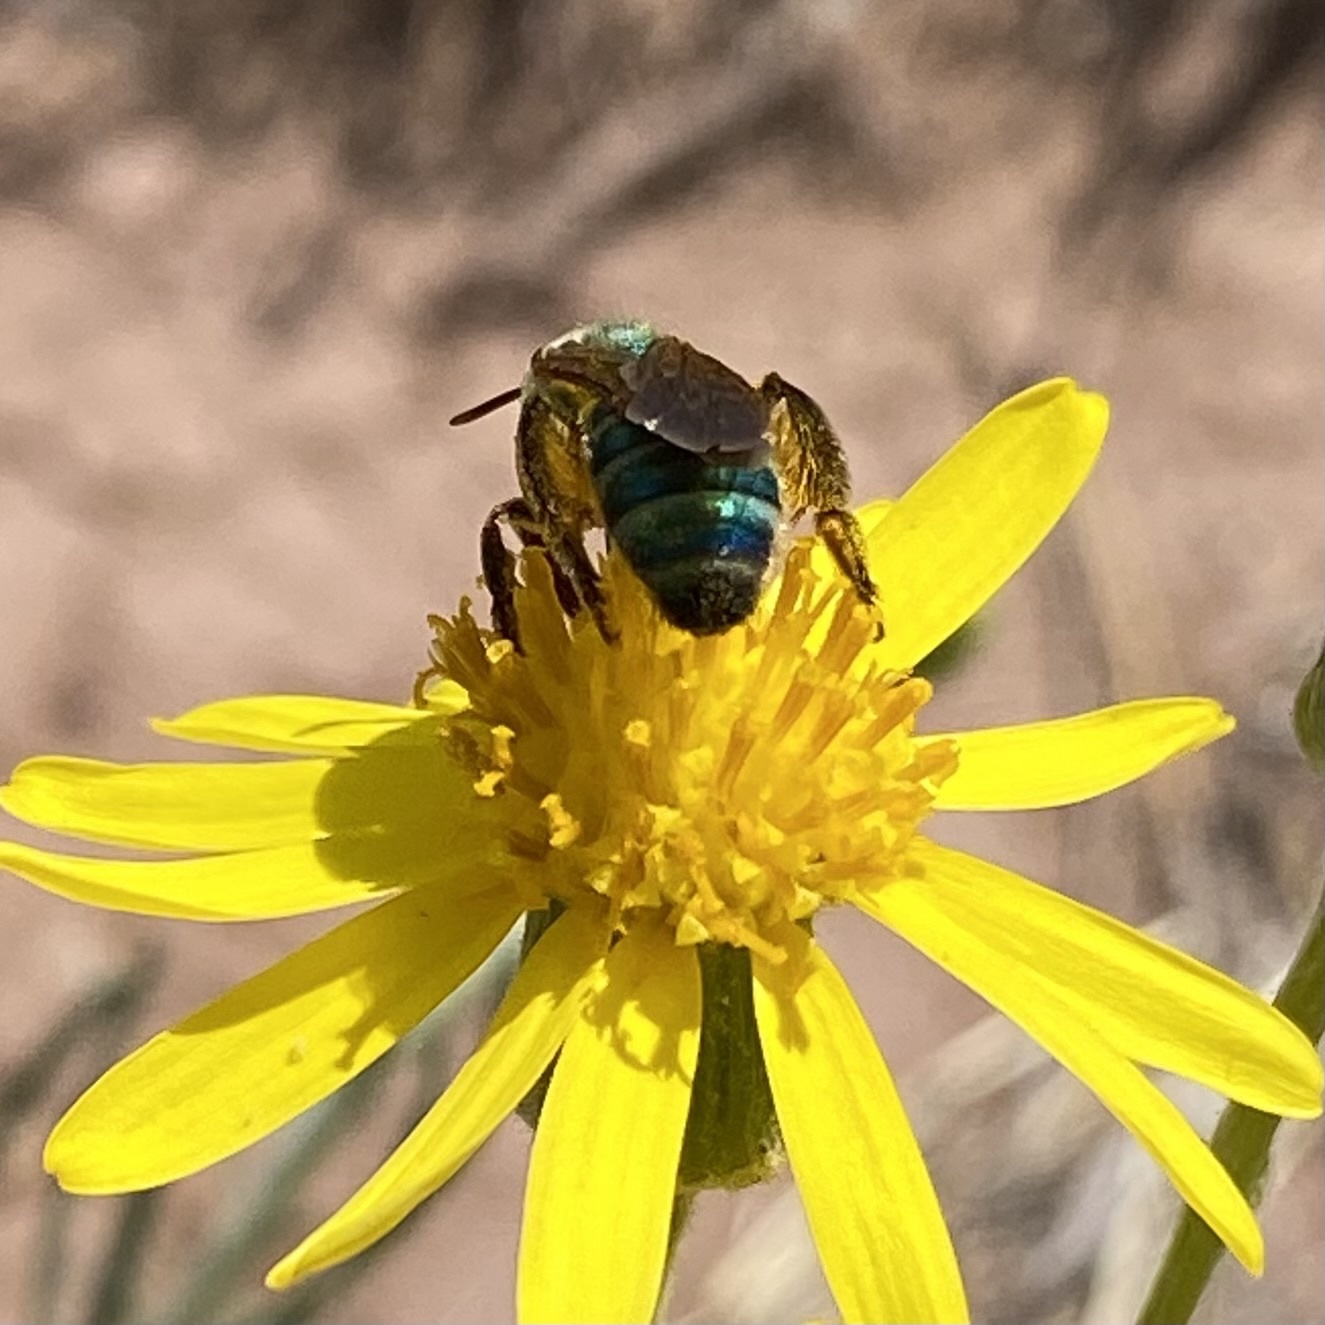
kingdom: Animalia
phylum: Arthropoda
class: Insecta
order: Hymenoptera
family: Halictidae
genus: Agapostemon
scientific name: Agapostemon
